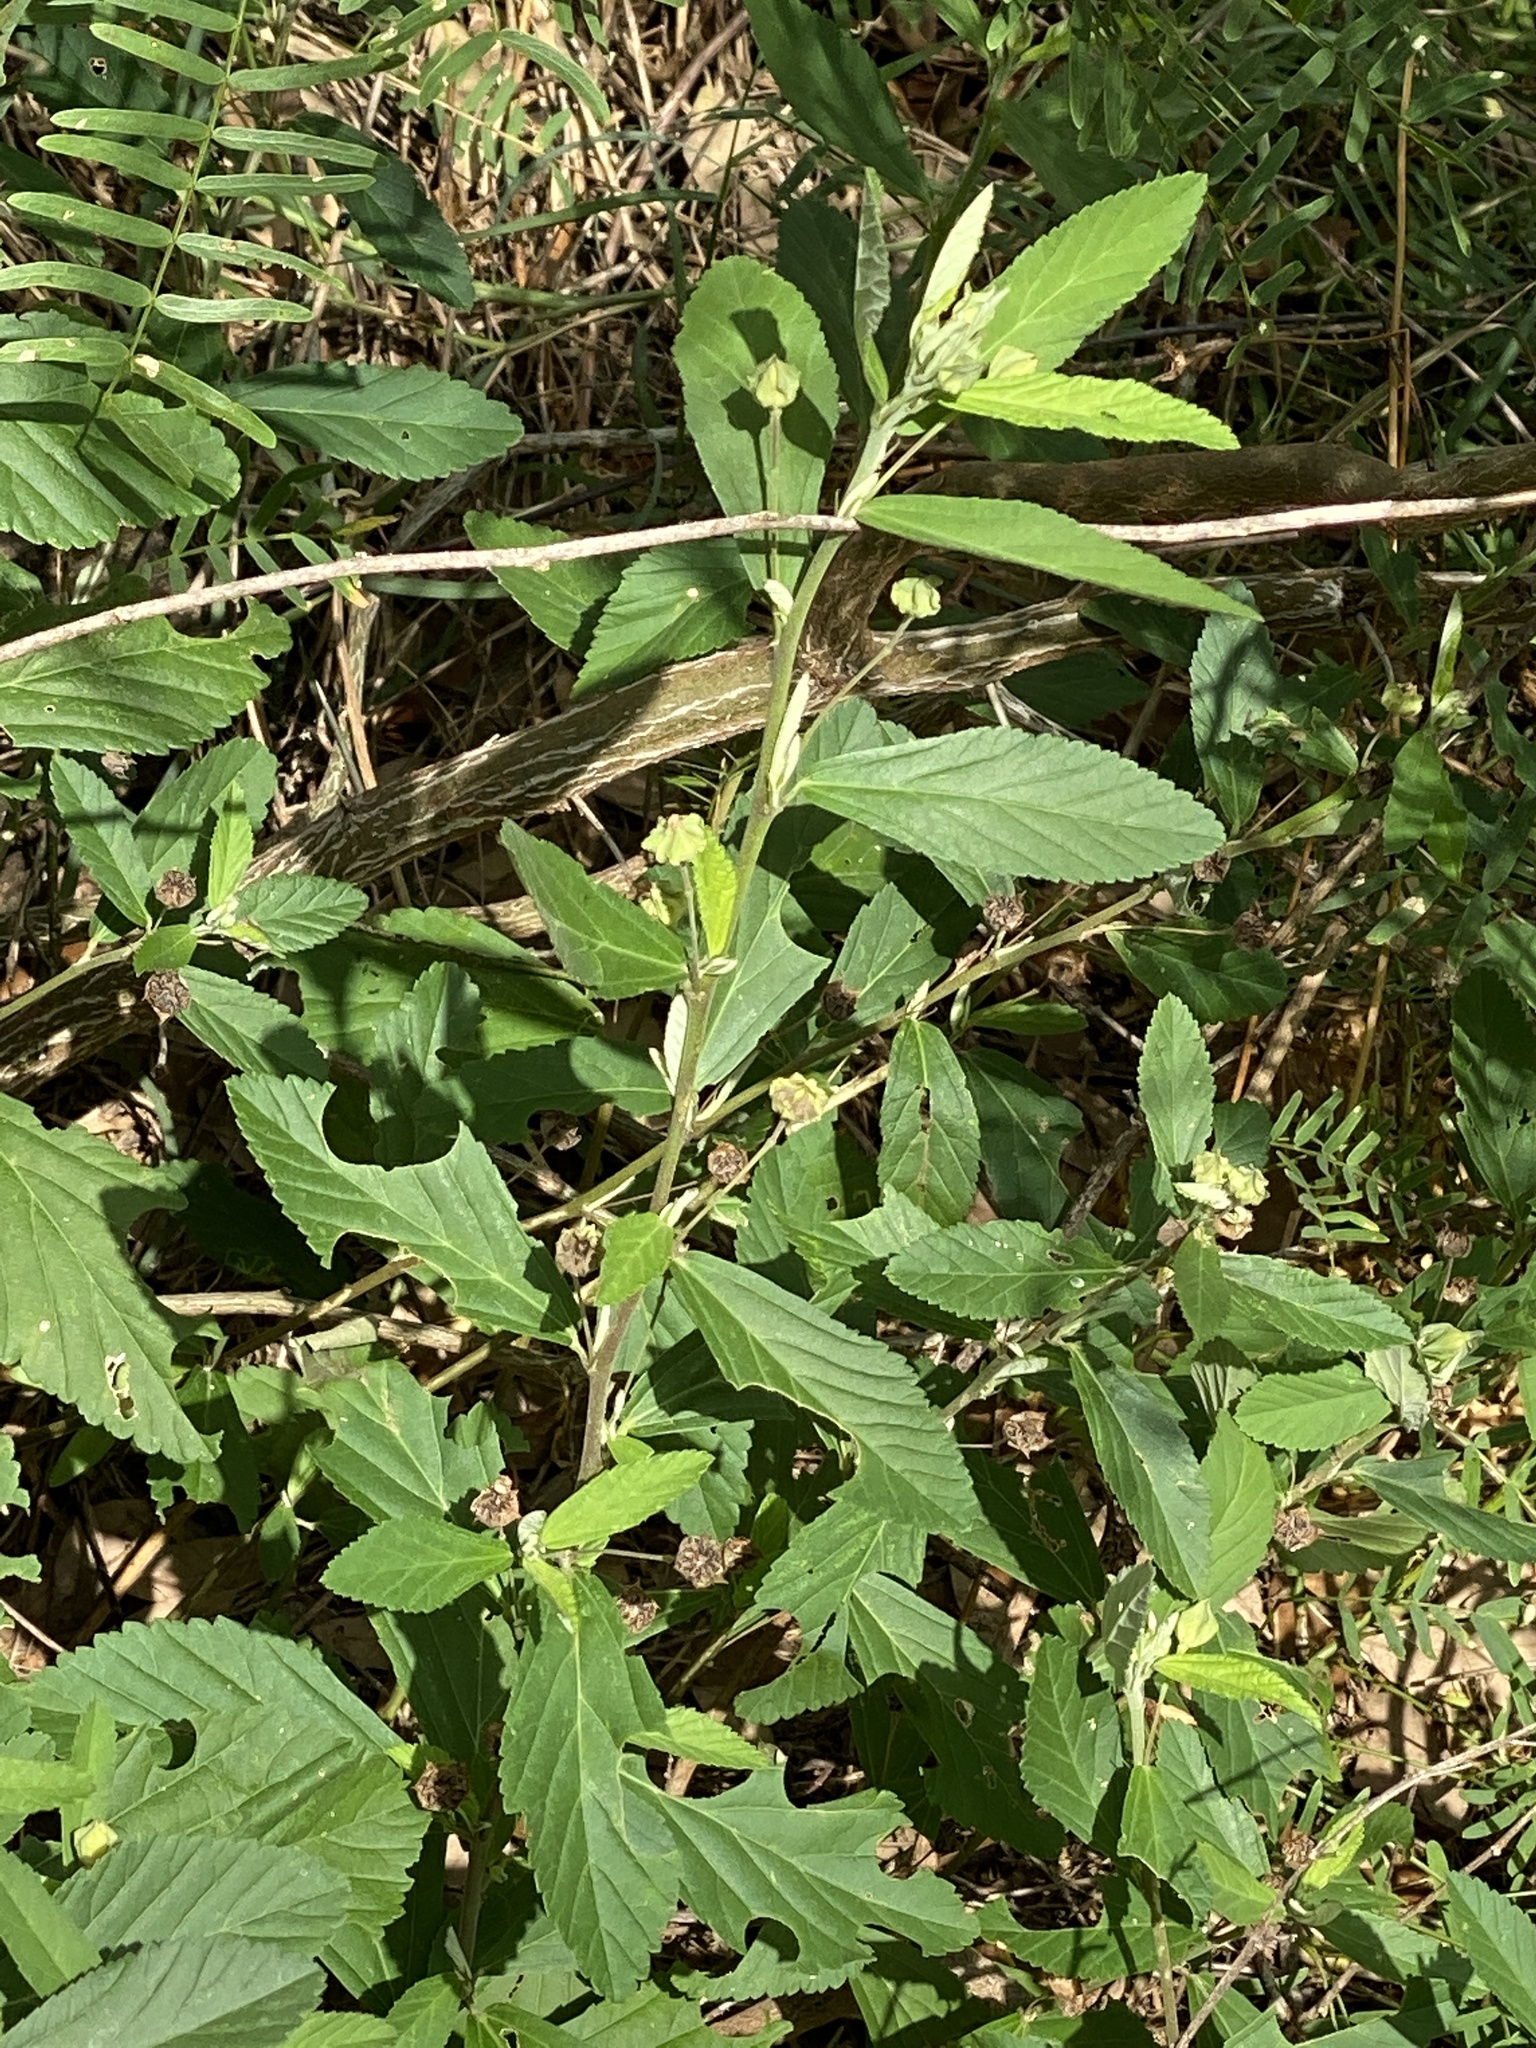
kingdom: Plantae
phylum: Tracheophyta
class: Magnoliopsida
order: Malvales
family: Malvaceae
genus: Sida
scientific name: Sida rhombifolia
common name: Queensland-hemp
